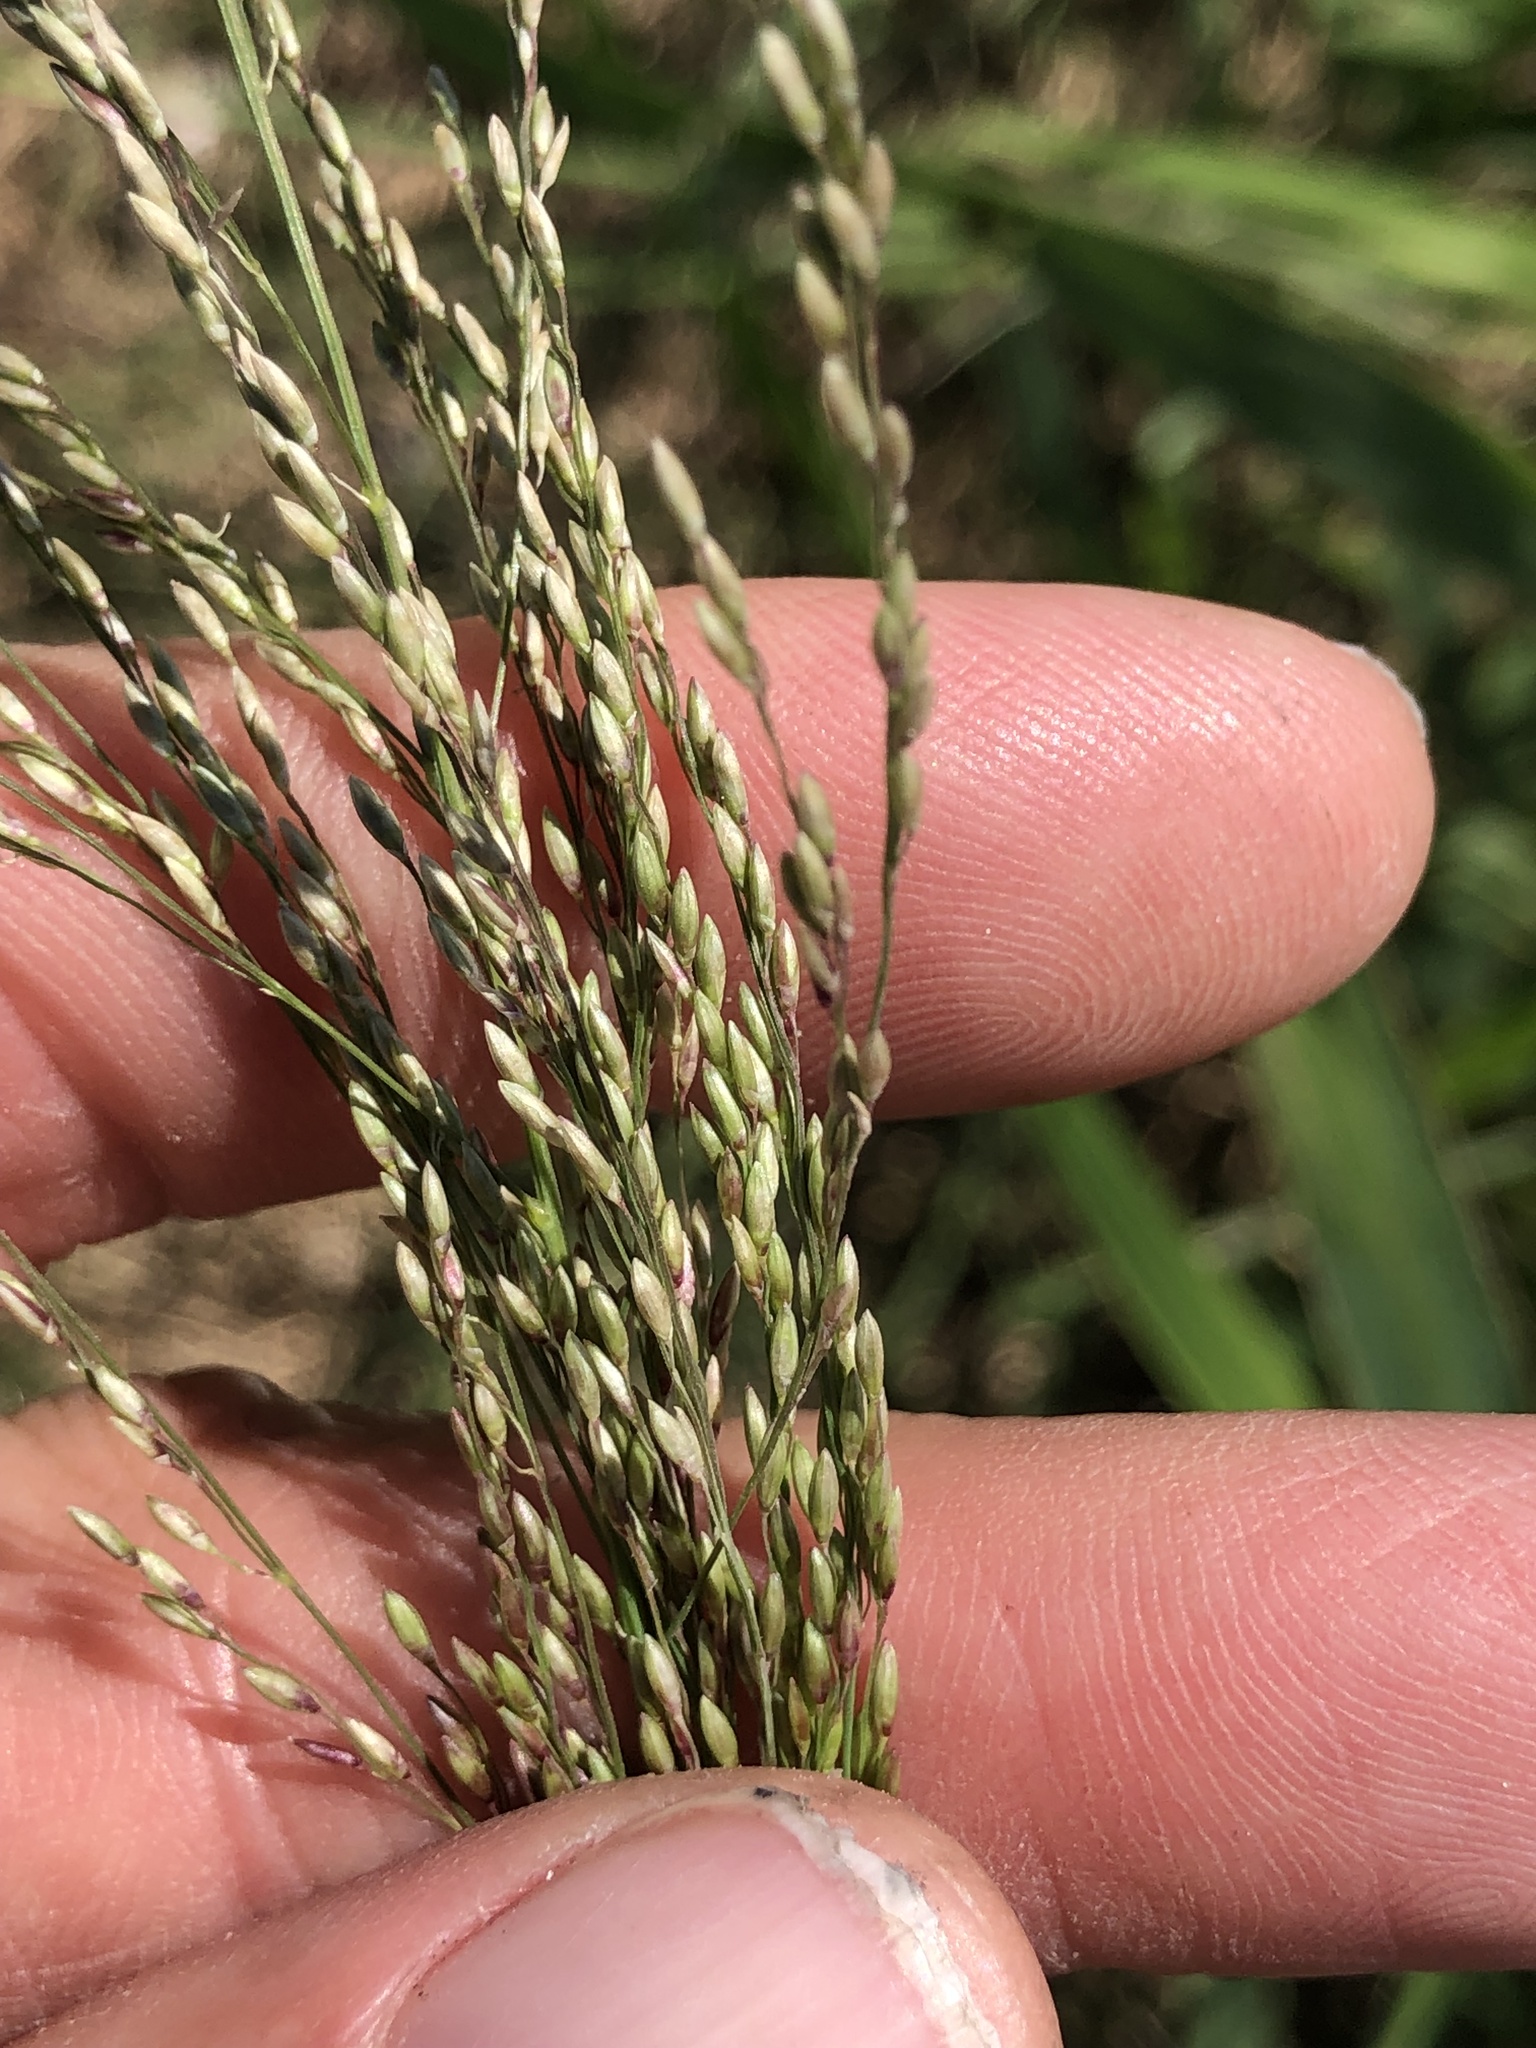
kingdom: Plantae
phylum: Tracheophyta
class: Liliopsida
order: Poales
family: Poaceae
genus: Megathyrsus
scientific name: Megathyrsus maximus
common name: Guineagrass
